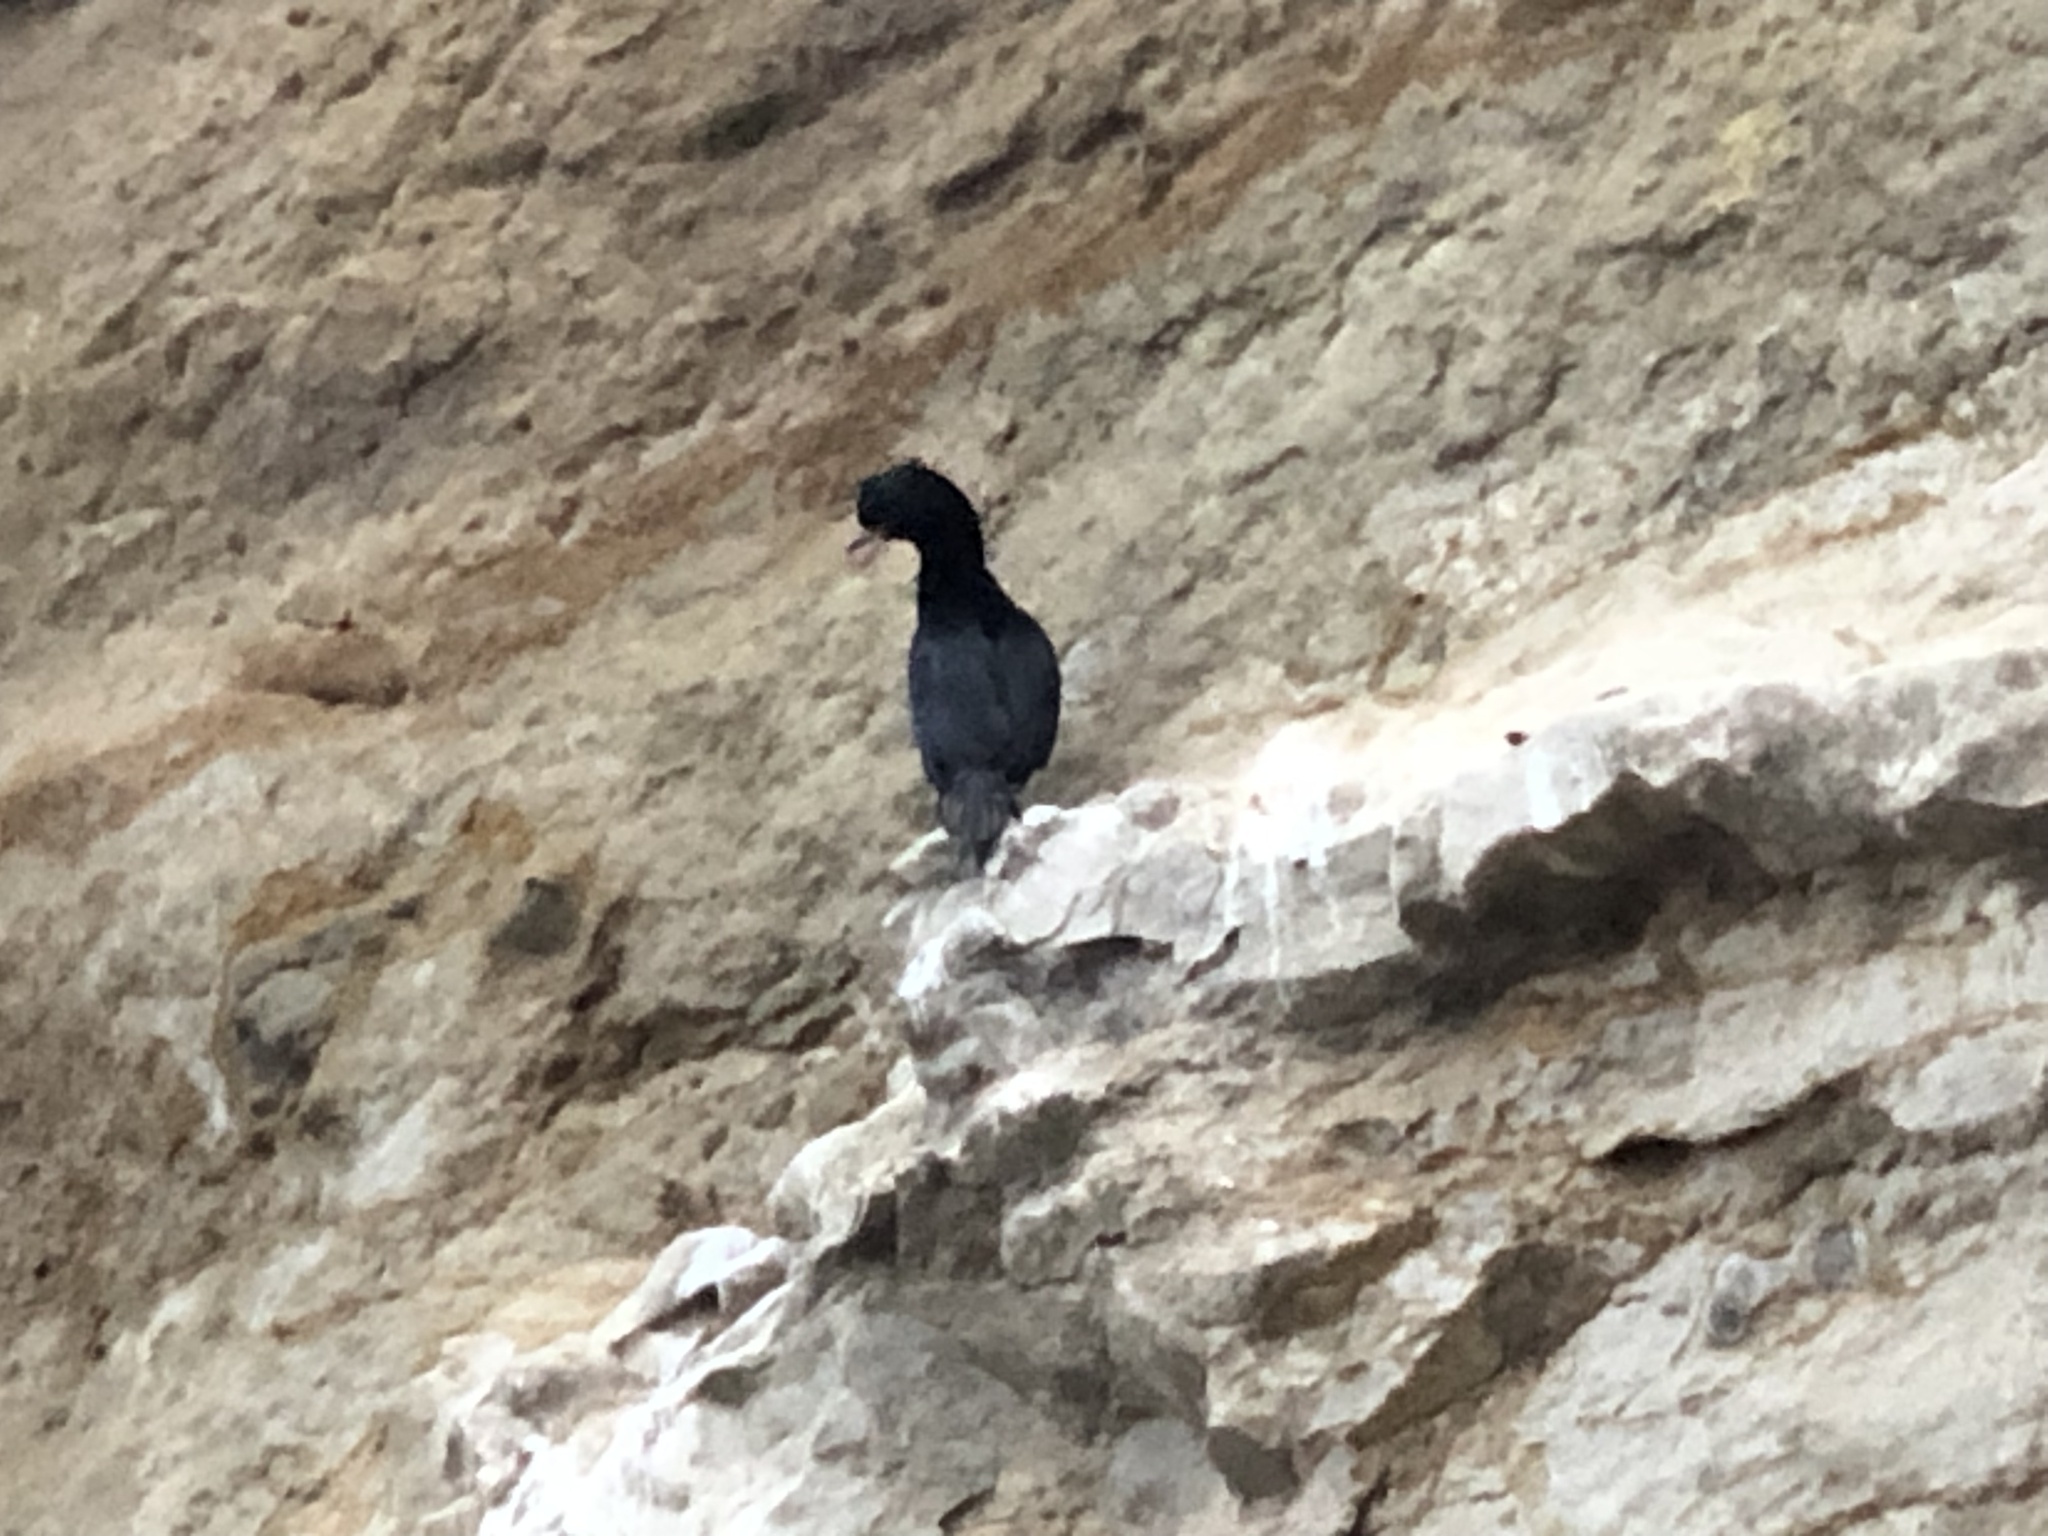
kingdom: Animalia
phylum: Chordata
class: Aves
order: Suliformes
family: Phalacrocoracidae
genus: Urile
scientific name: Urile penicillatus
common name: Brandt's cormorant
